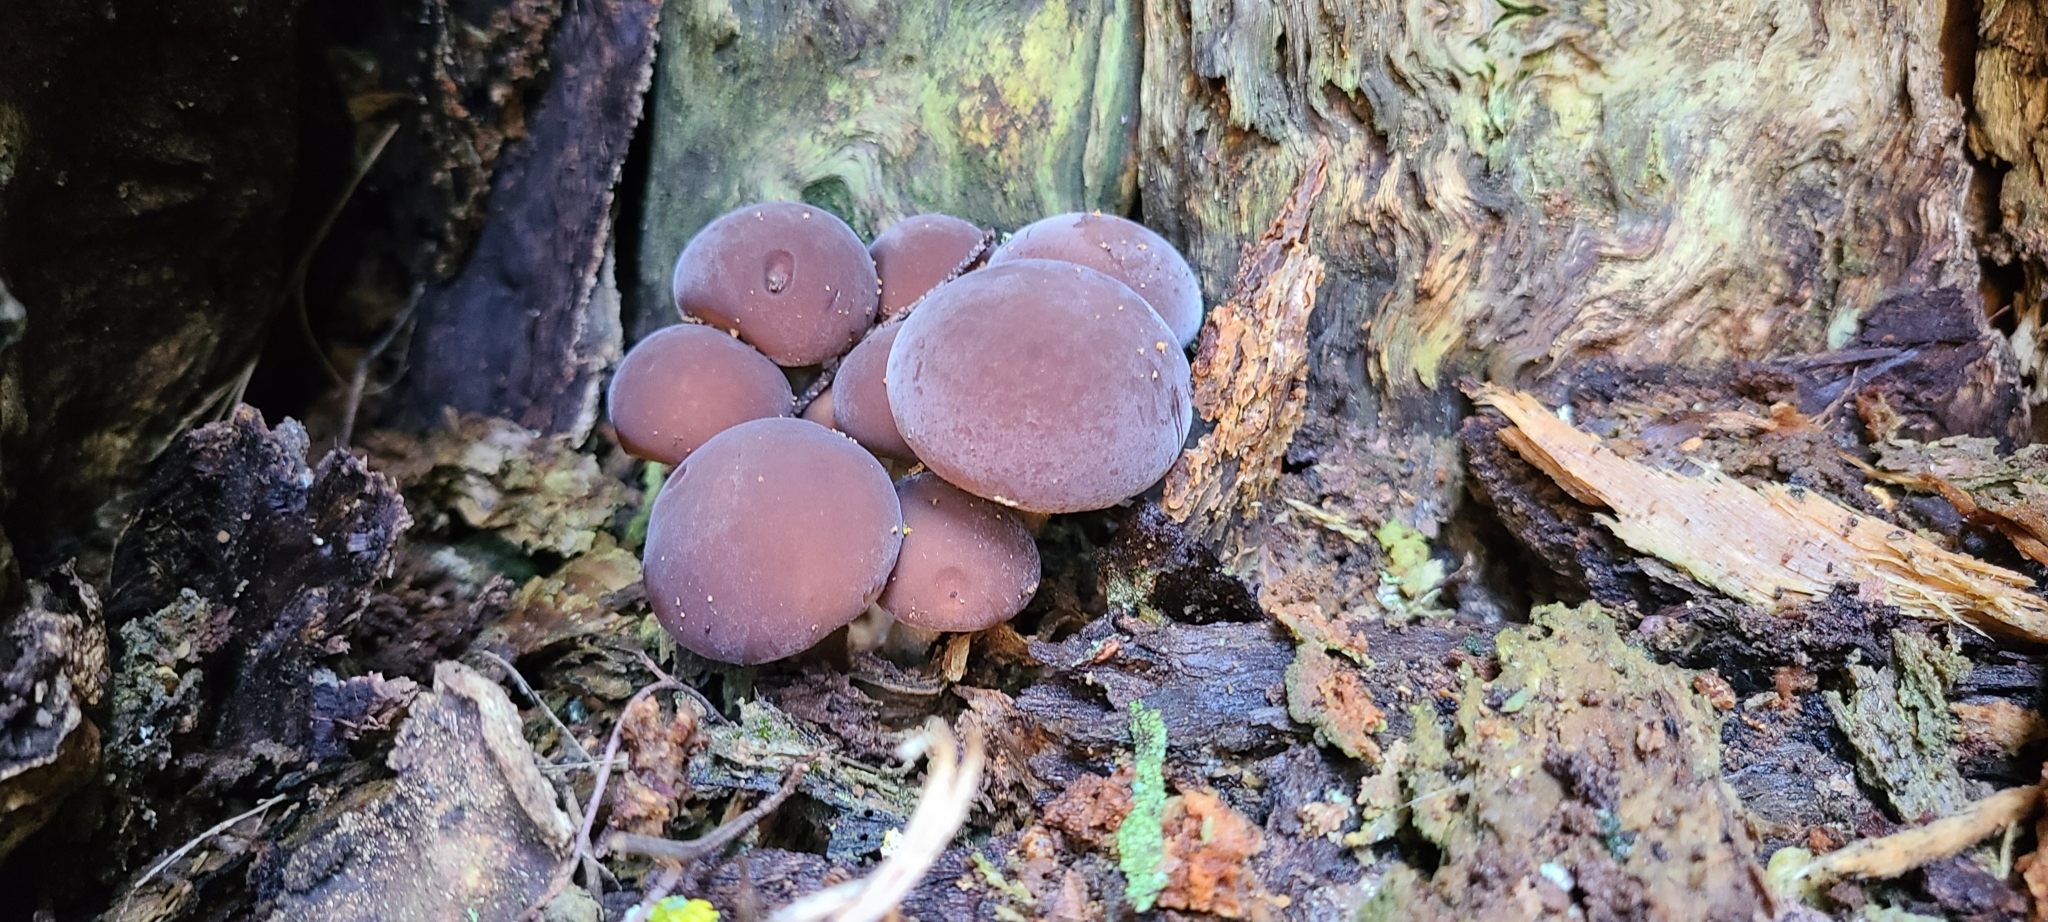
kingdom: Fungi
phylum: Basidiomycota
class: Agaricomycetes
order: Agaricales
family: Tubariaceae
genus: Cyclocybe
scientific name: Cyclocybe parasitica
